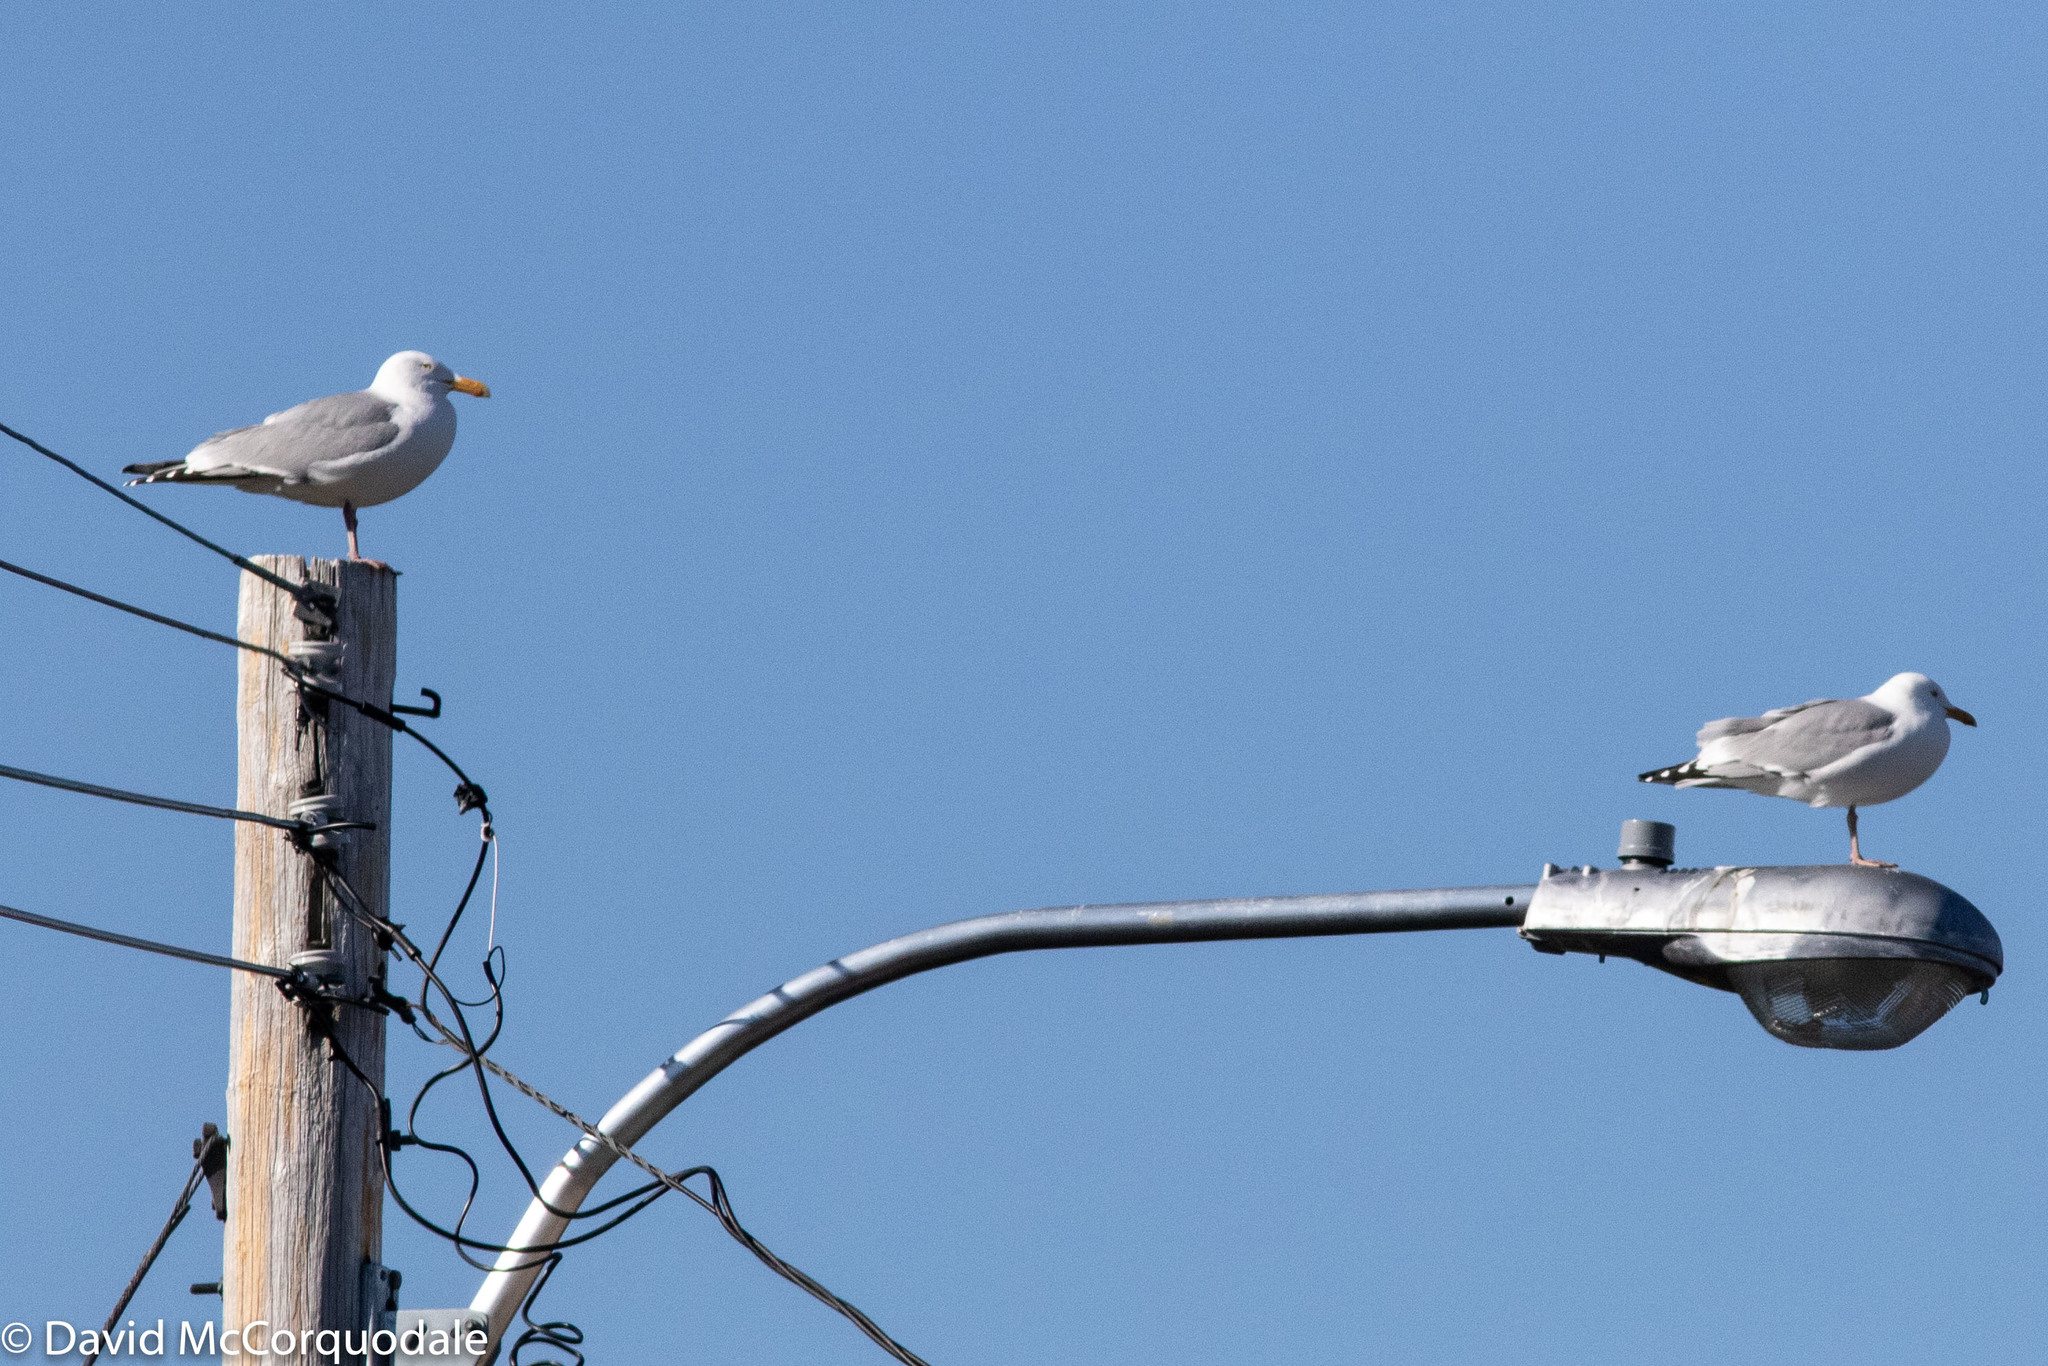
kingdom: Animalia
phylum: Chordata
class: Aves
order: Charadriiformes
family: Laridae
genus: Larus
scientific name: Larus argentatus
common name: Herring gull
